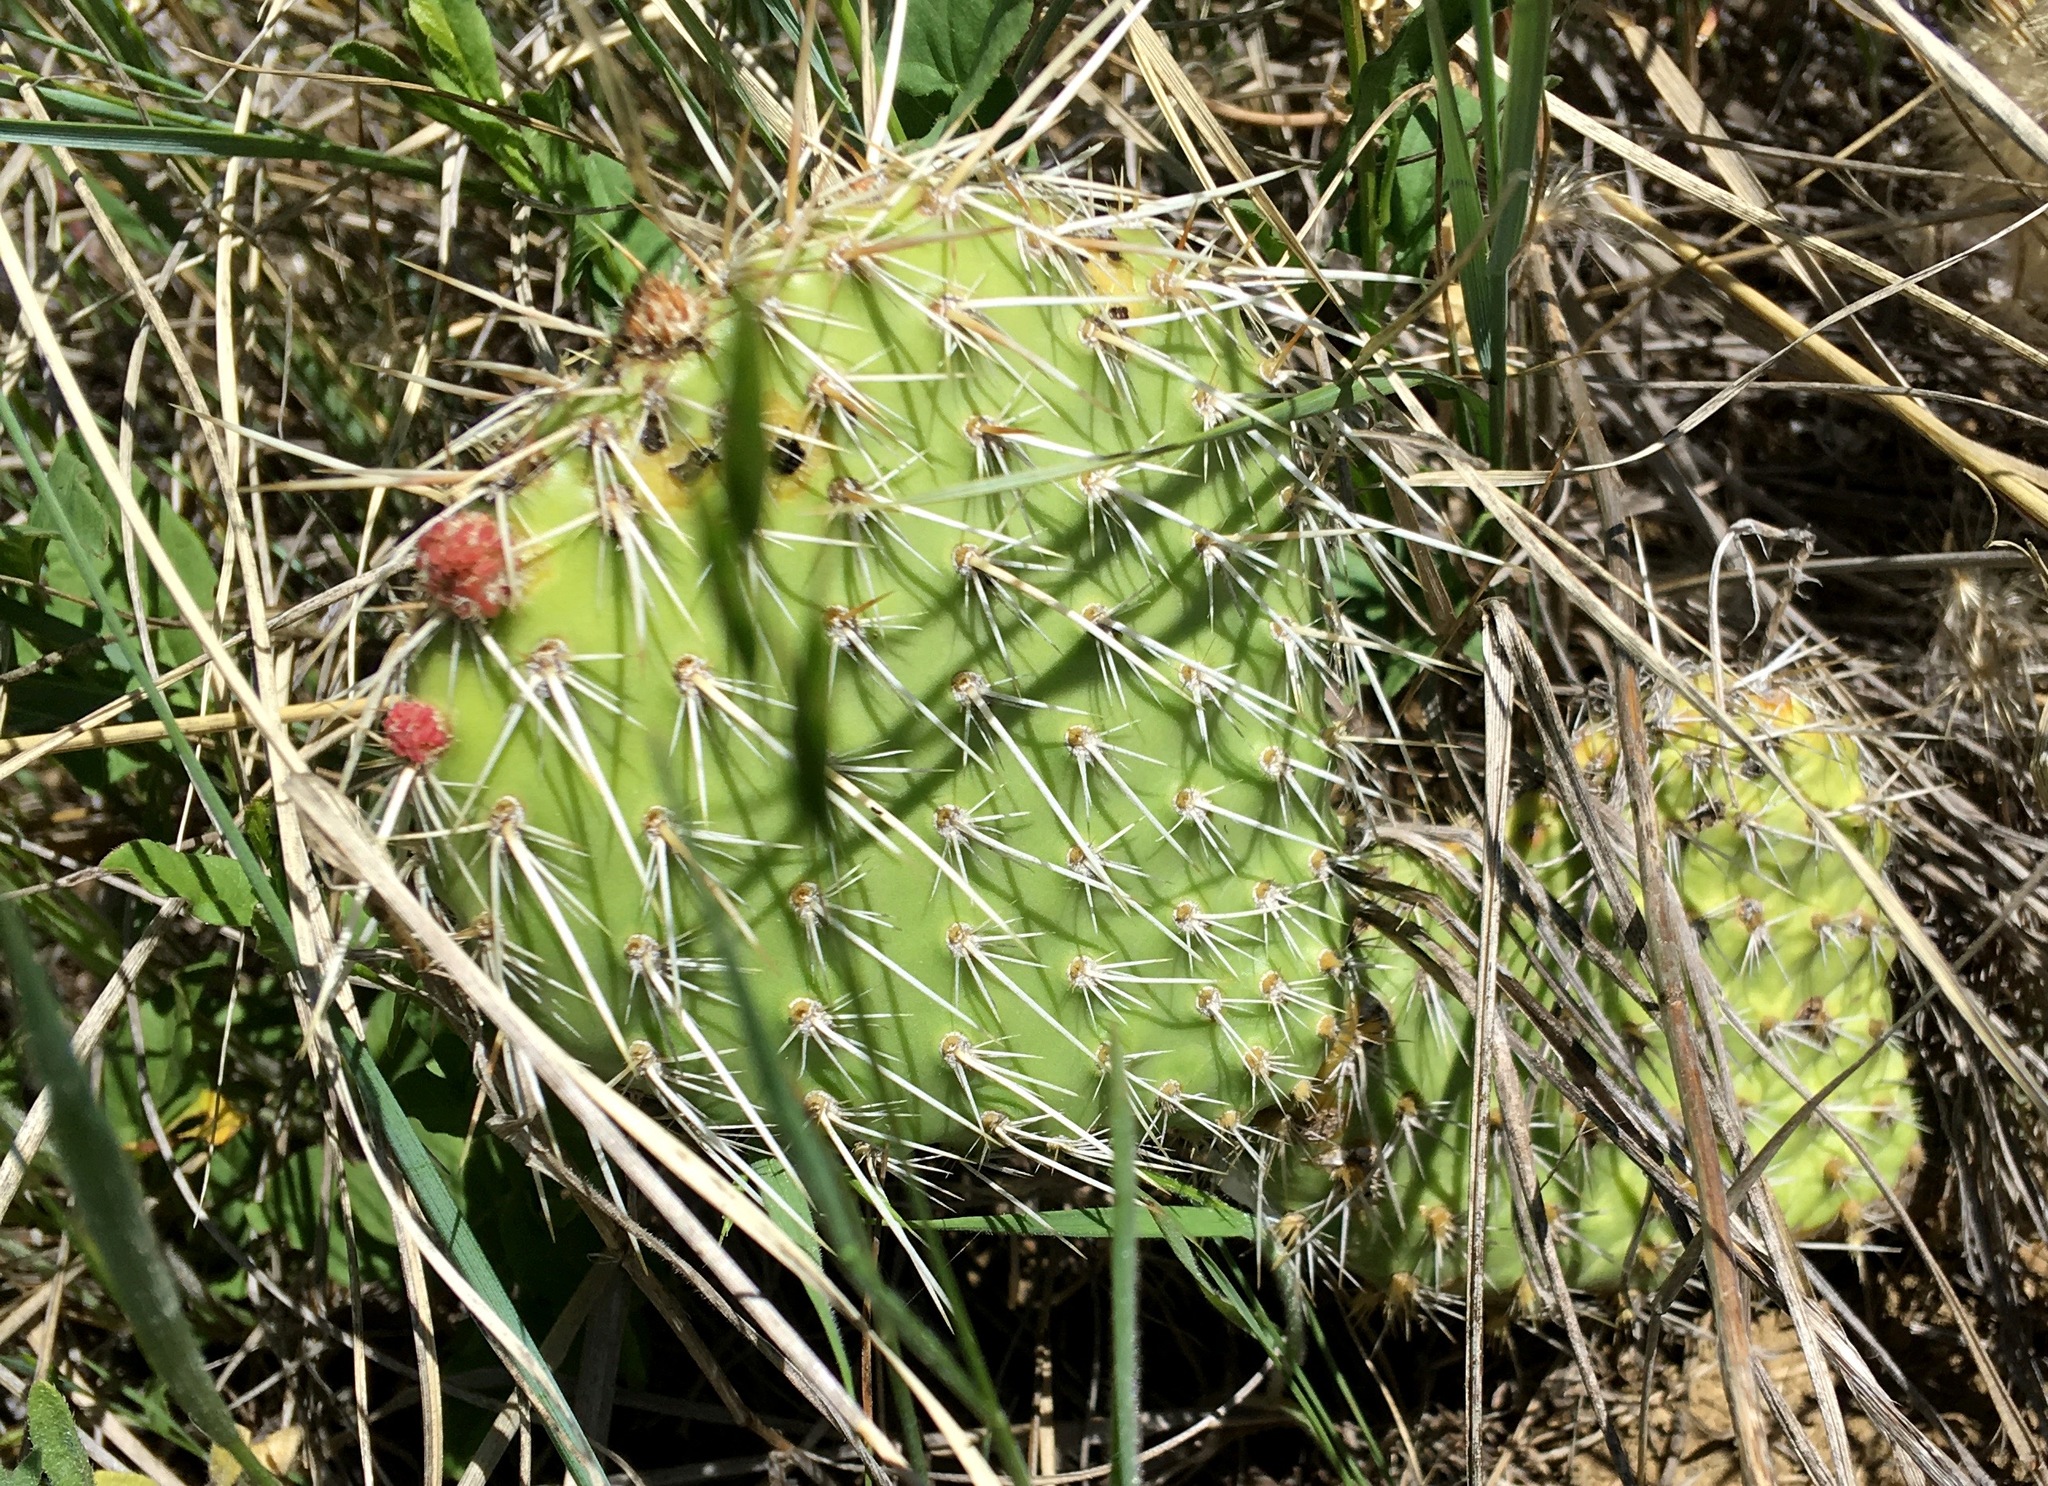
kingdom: Plantae
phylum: Tracheophyta
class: Magnoliopsida
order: Caryophyllales
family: Cactaceae
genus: Opuntia
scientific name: Opuntia polyacantha
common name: Plains prickly-pear
